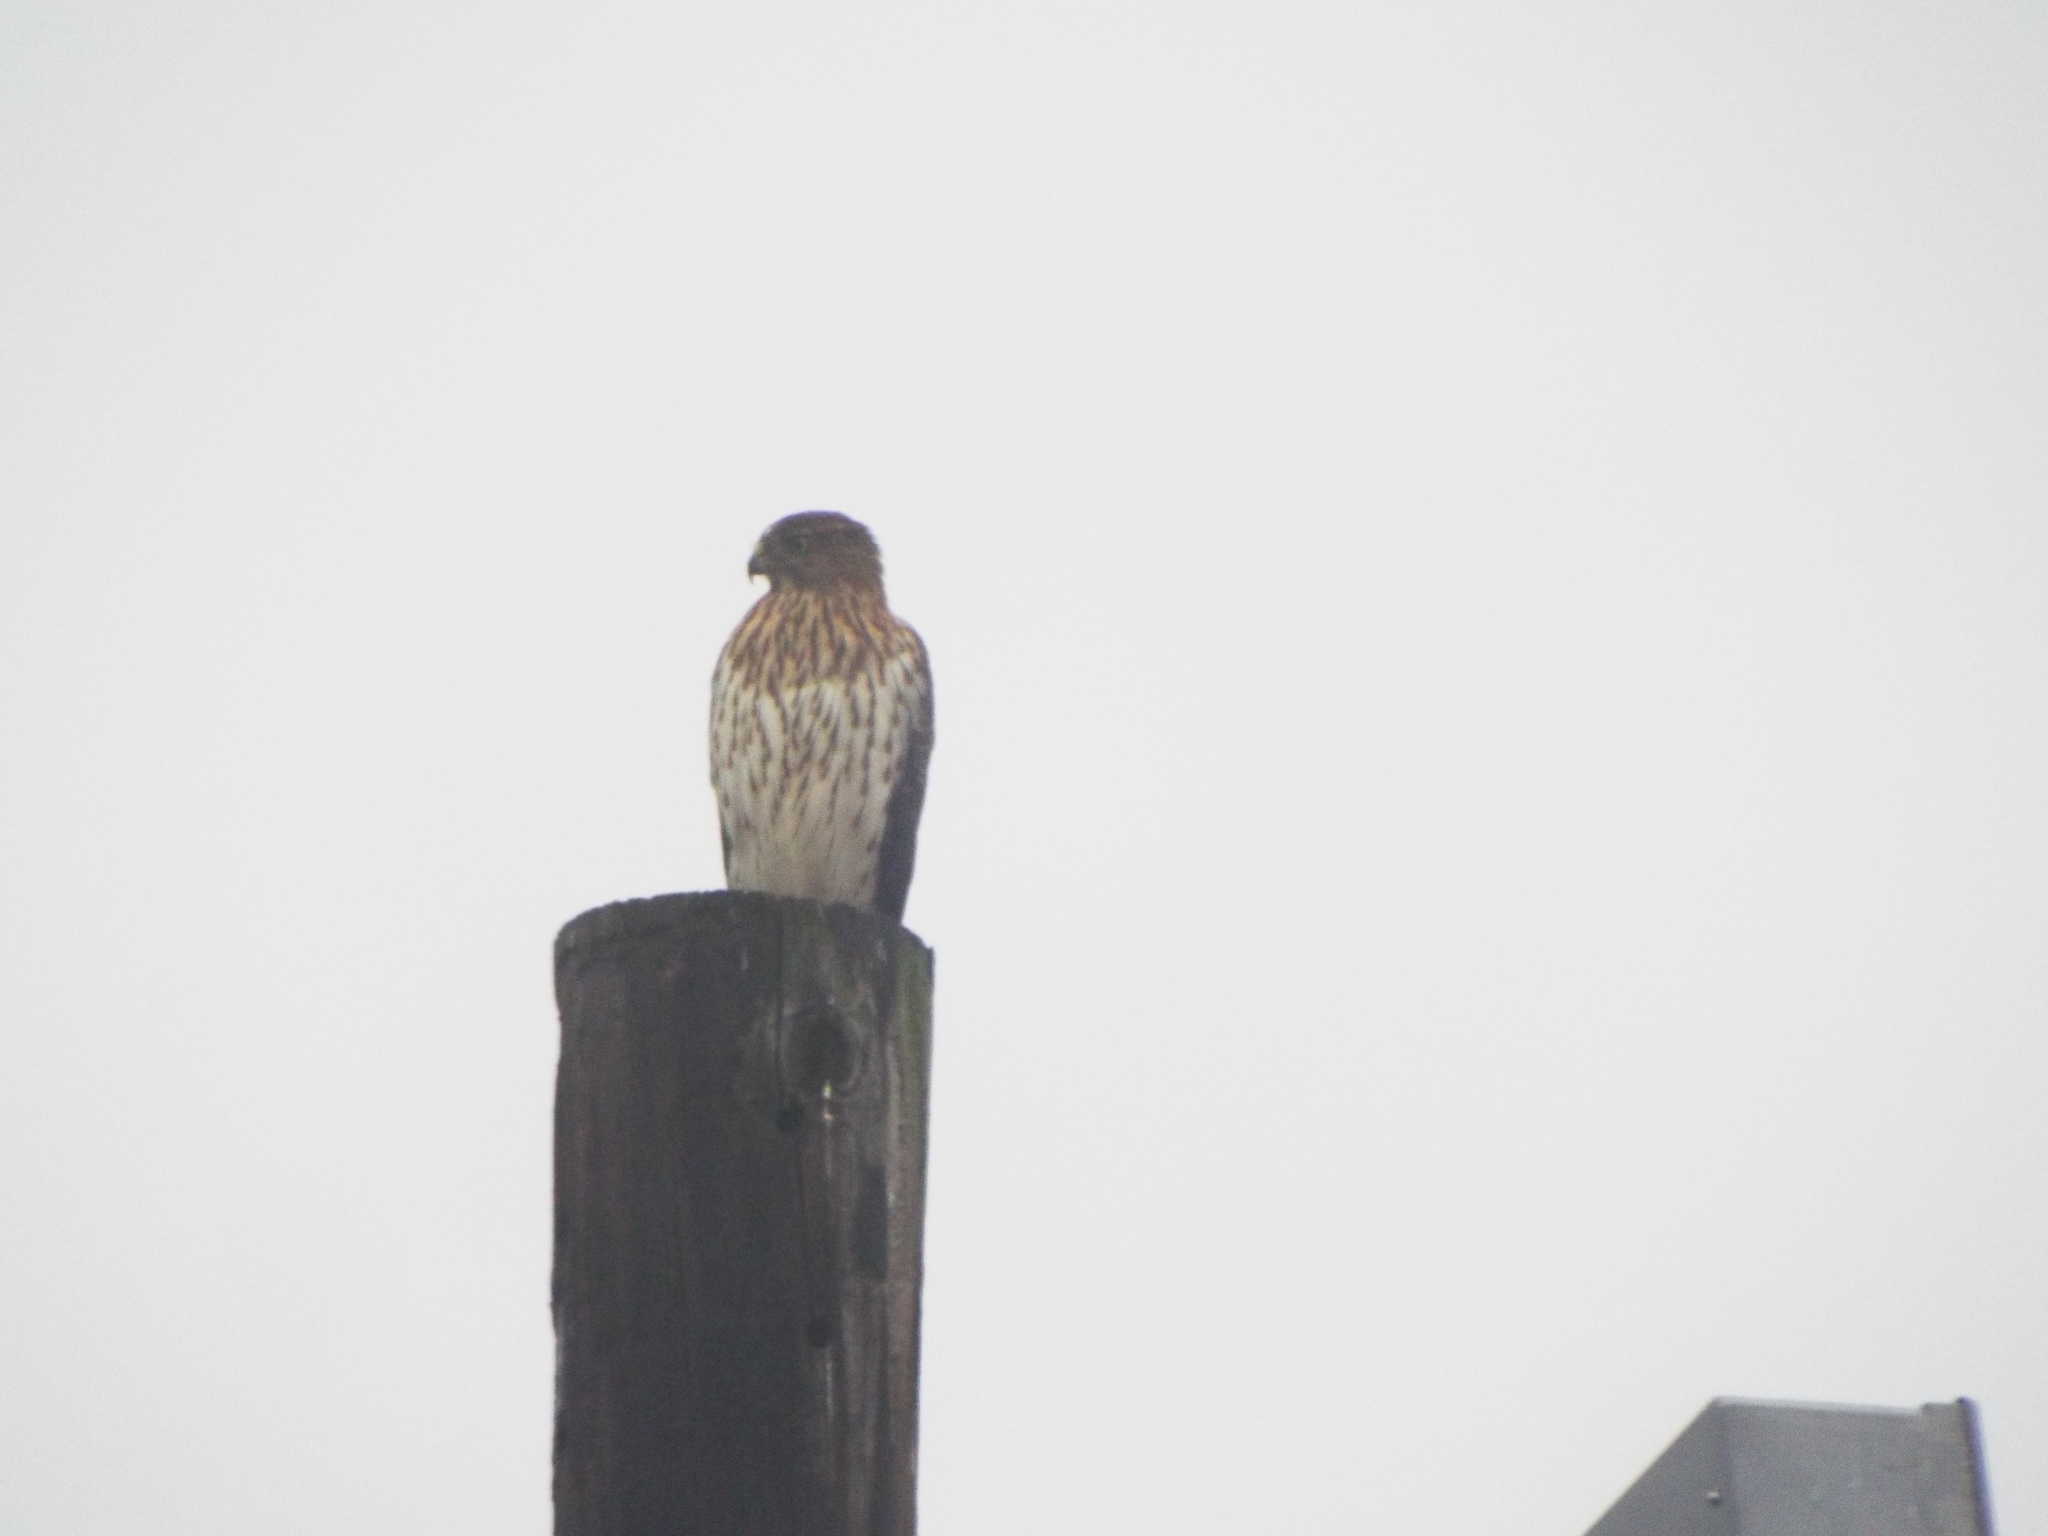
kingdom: Animalia
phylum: Chordata
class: Aves
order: Accipitriformes
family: Accipitridae
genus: Accipiter
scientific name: Accipiter cooperii
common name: Cooper's hawk
